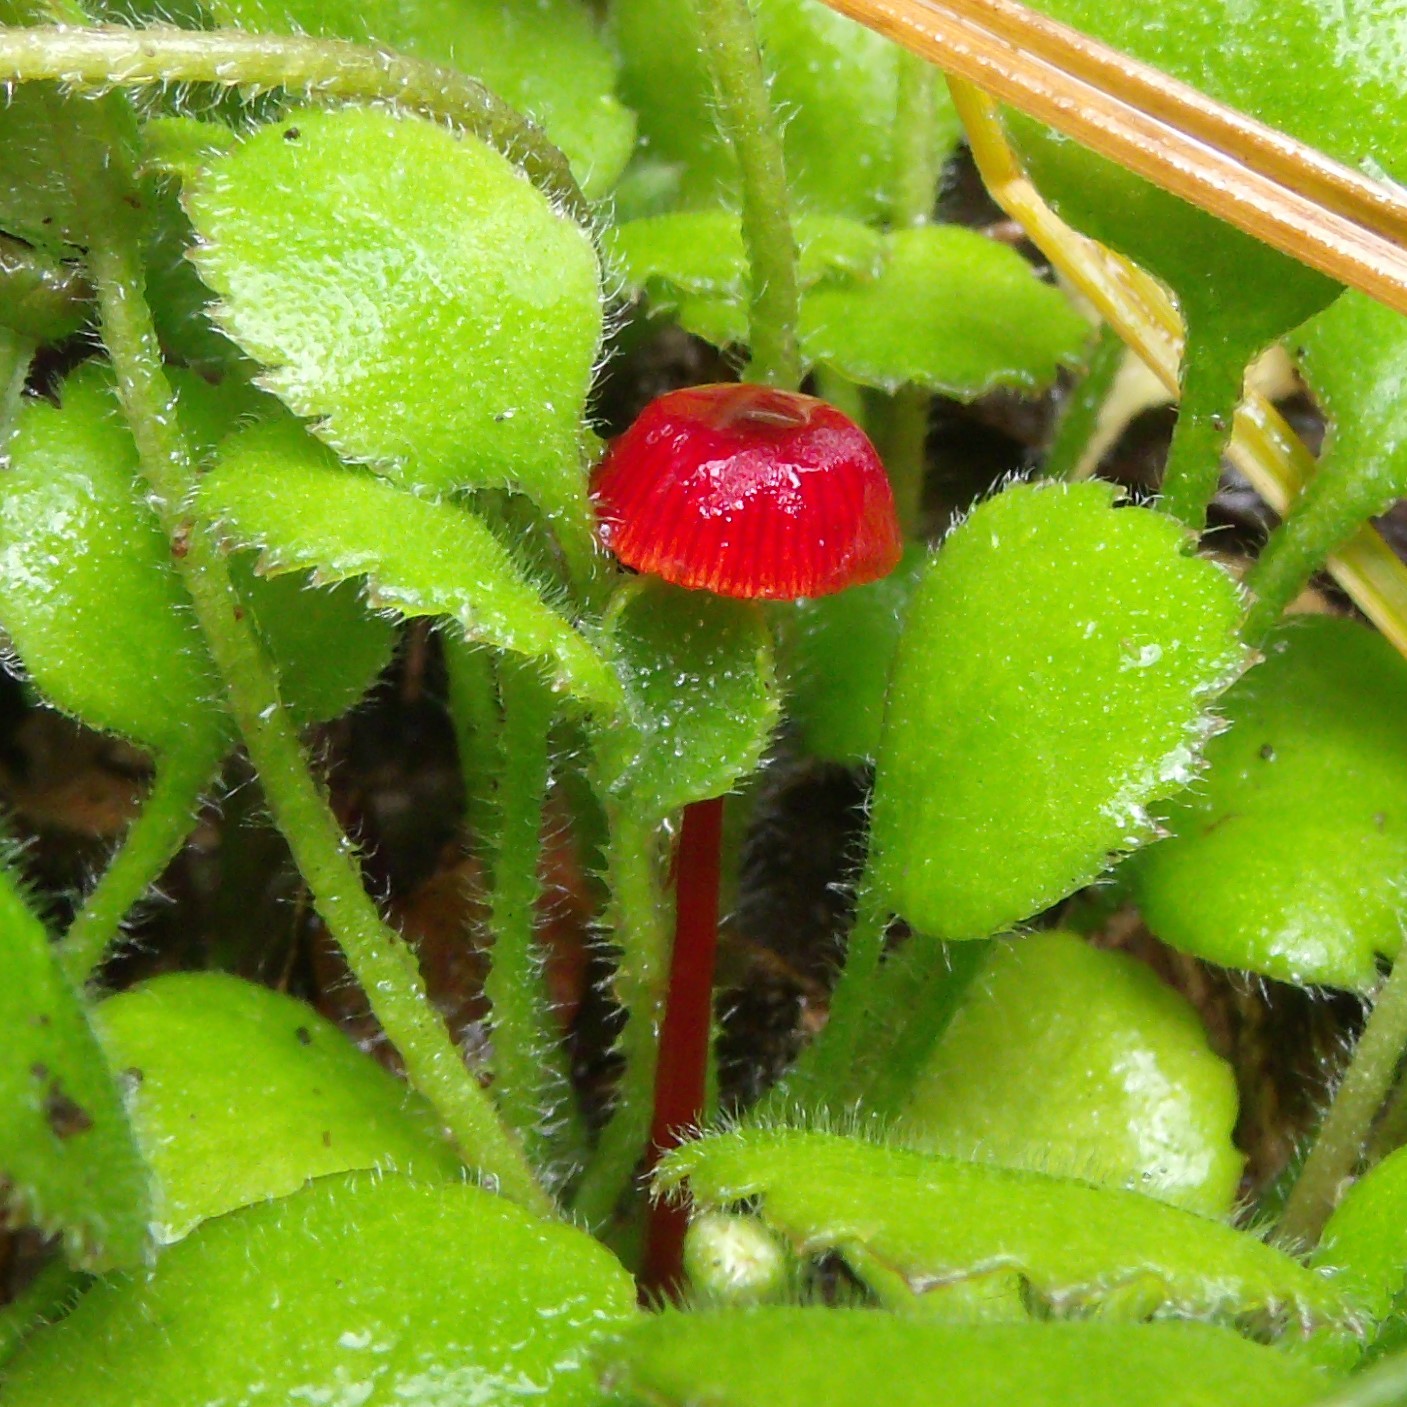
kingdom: Fungi
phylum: Basidiomycota
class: Agaricomycetes
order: Agaricales
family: Mycenaceae
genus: Cruentomycena
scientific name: Cruentomycena viscidocruenta
